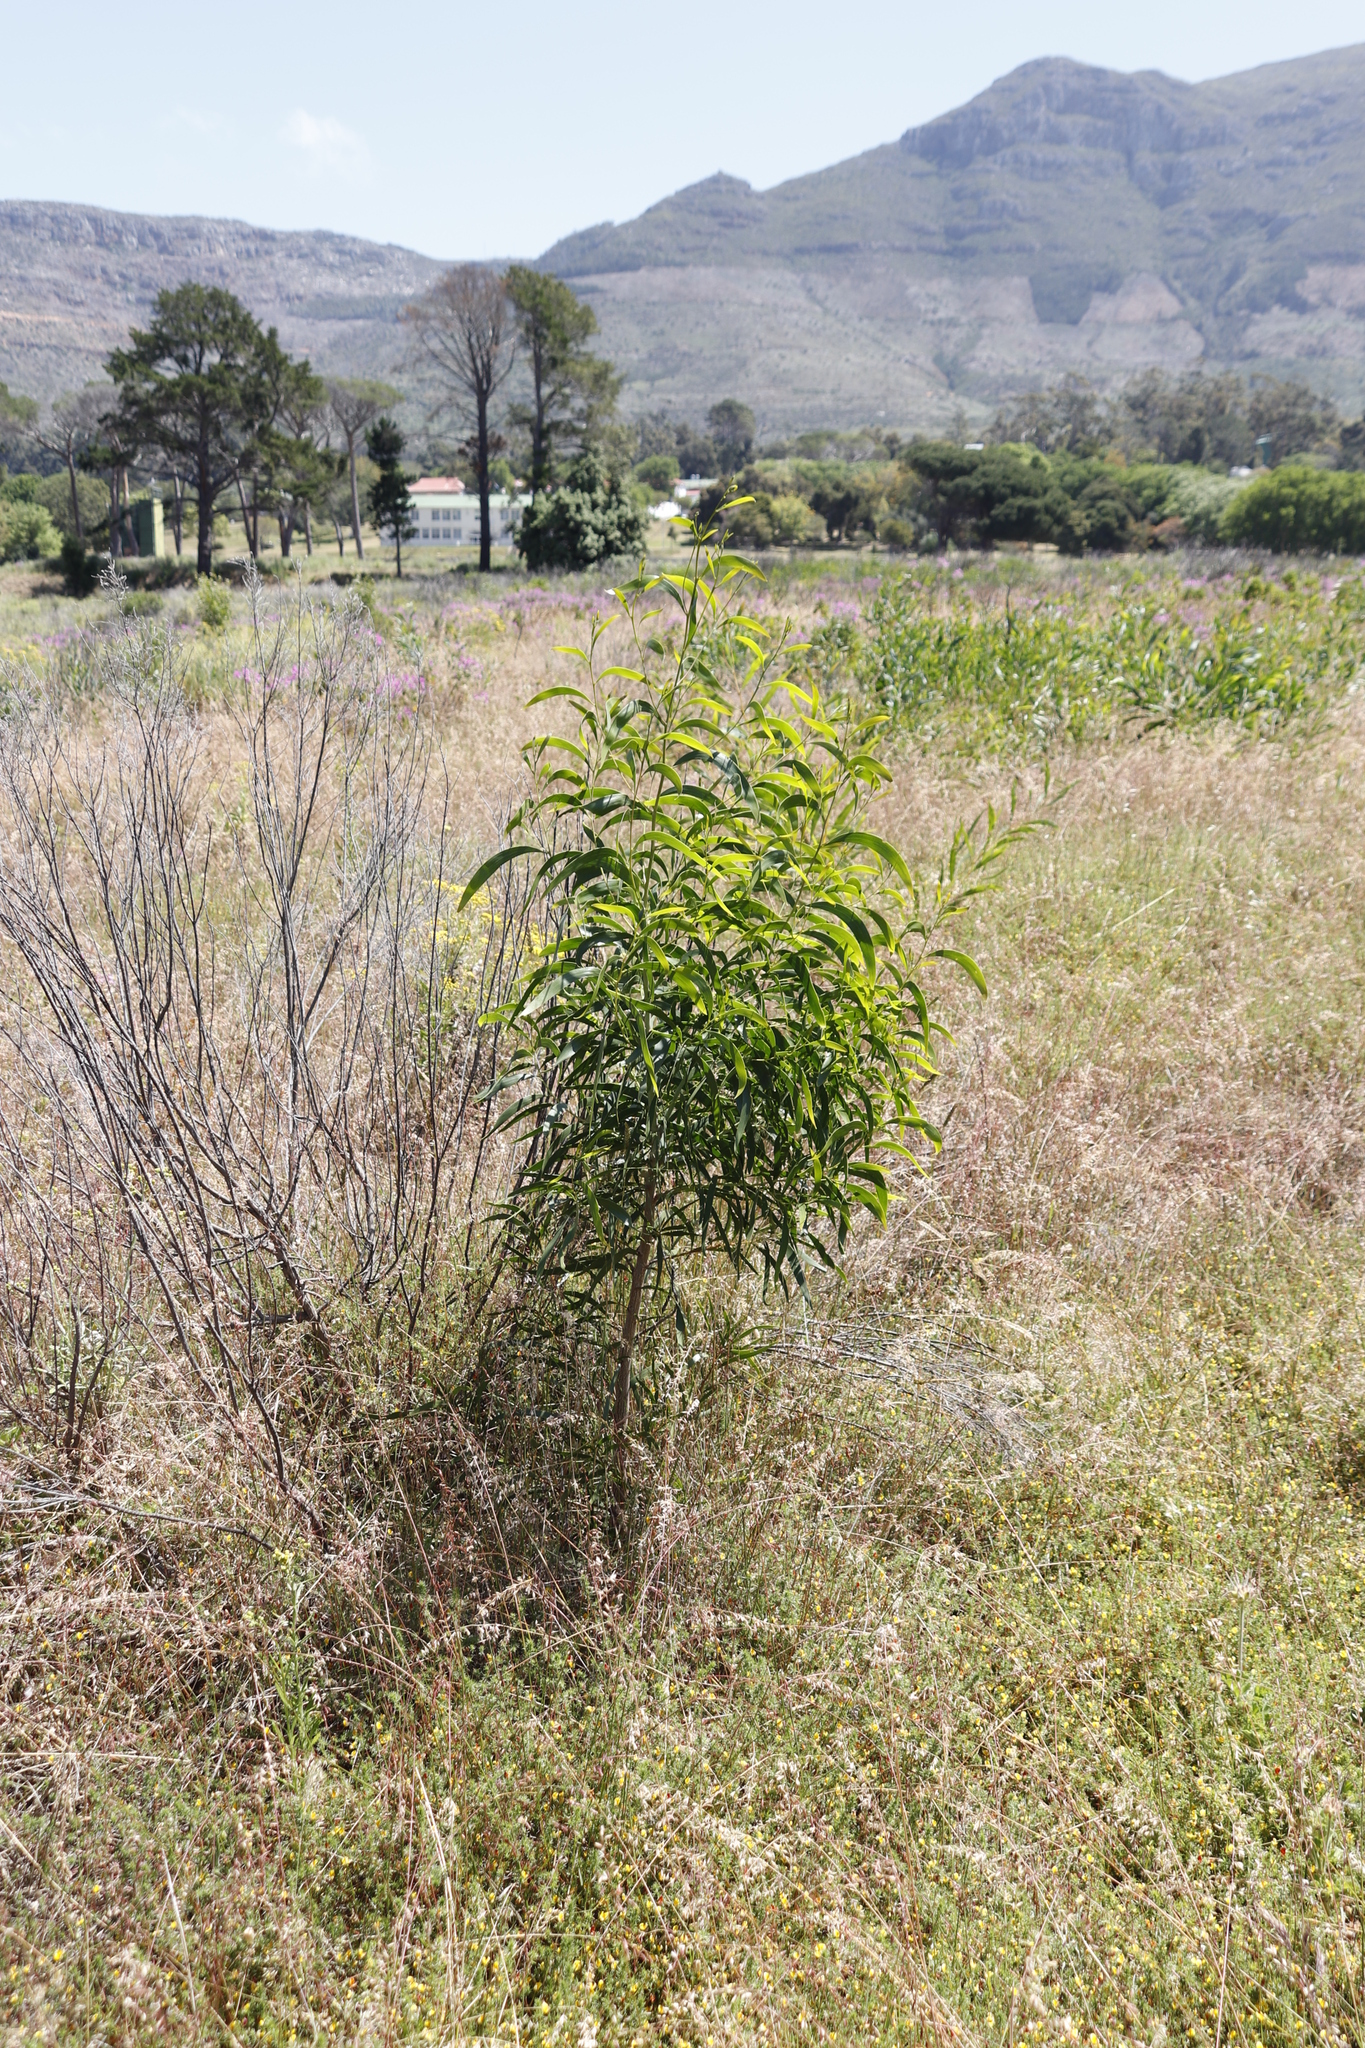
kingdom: Plantae
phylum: Tracheophyta
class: Magnoliopsida
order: Fabales
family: Fabaceae
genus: Acacia
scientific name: Acacia implexa
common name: Black wattle
